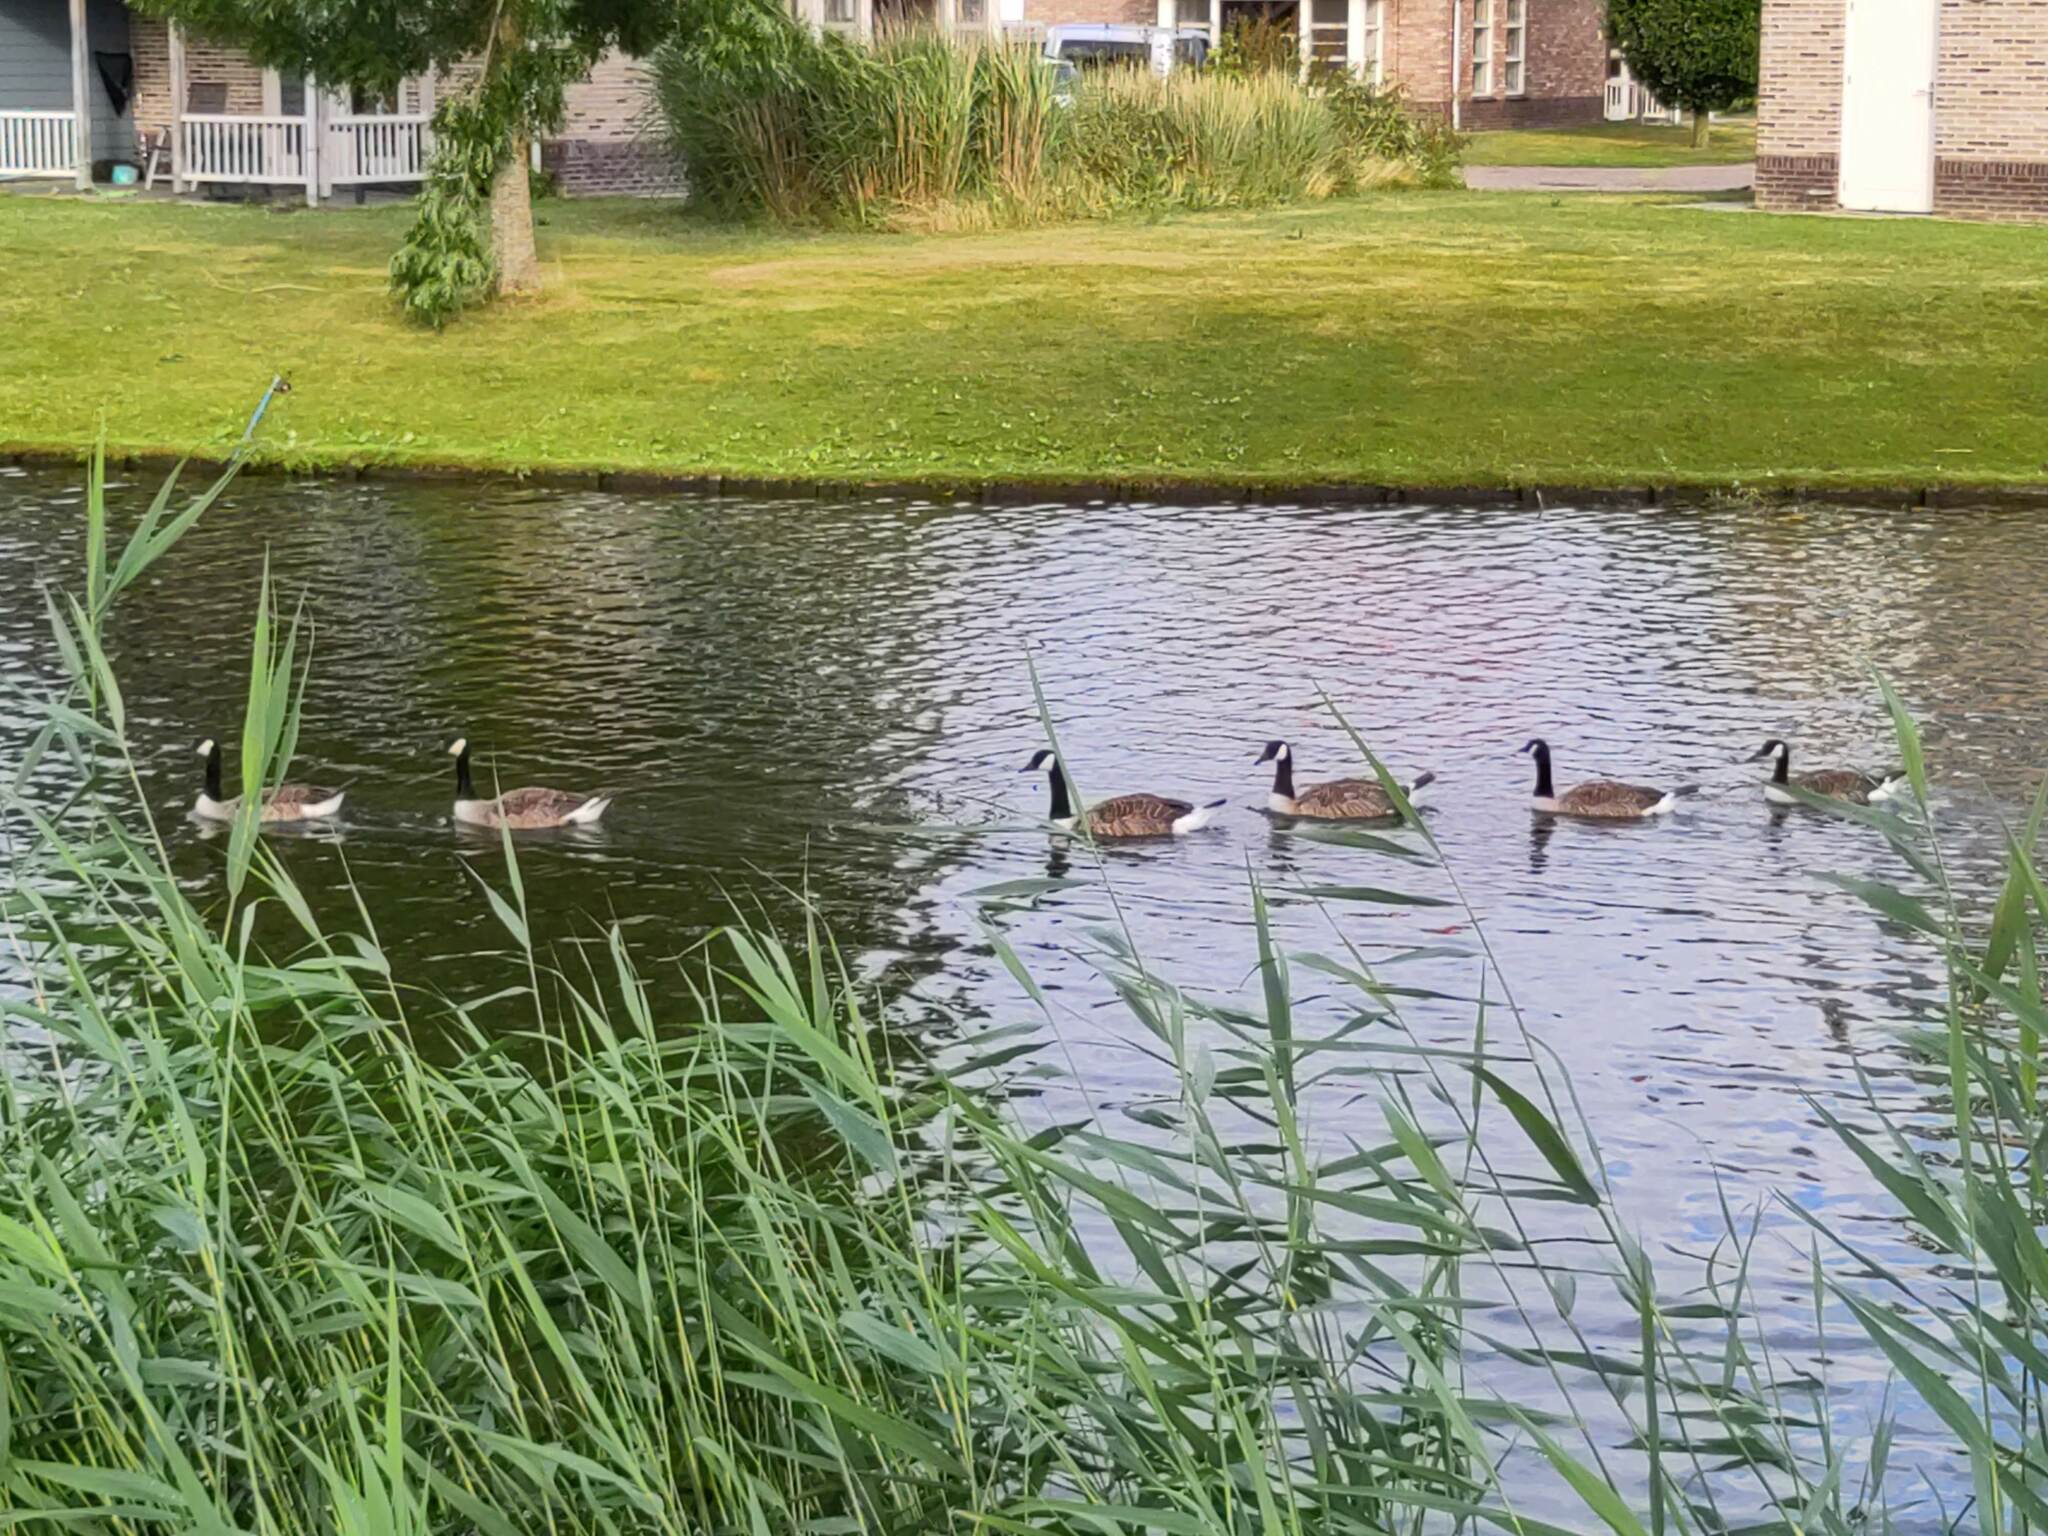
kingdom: Animalia
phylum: Chordata
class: Aves
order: Anseriformes
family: Anatidae
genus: Branta
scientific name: Branta canadensis
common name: Canada goose
